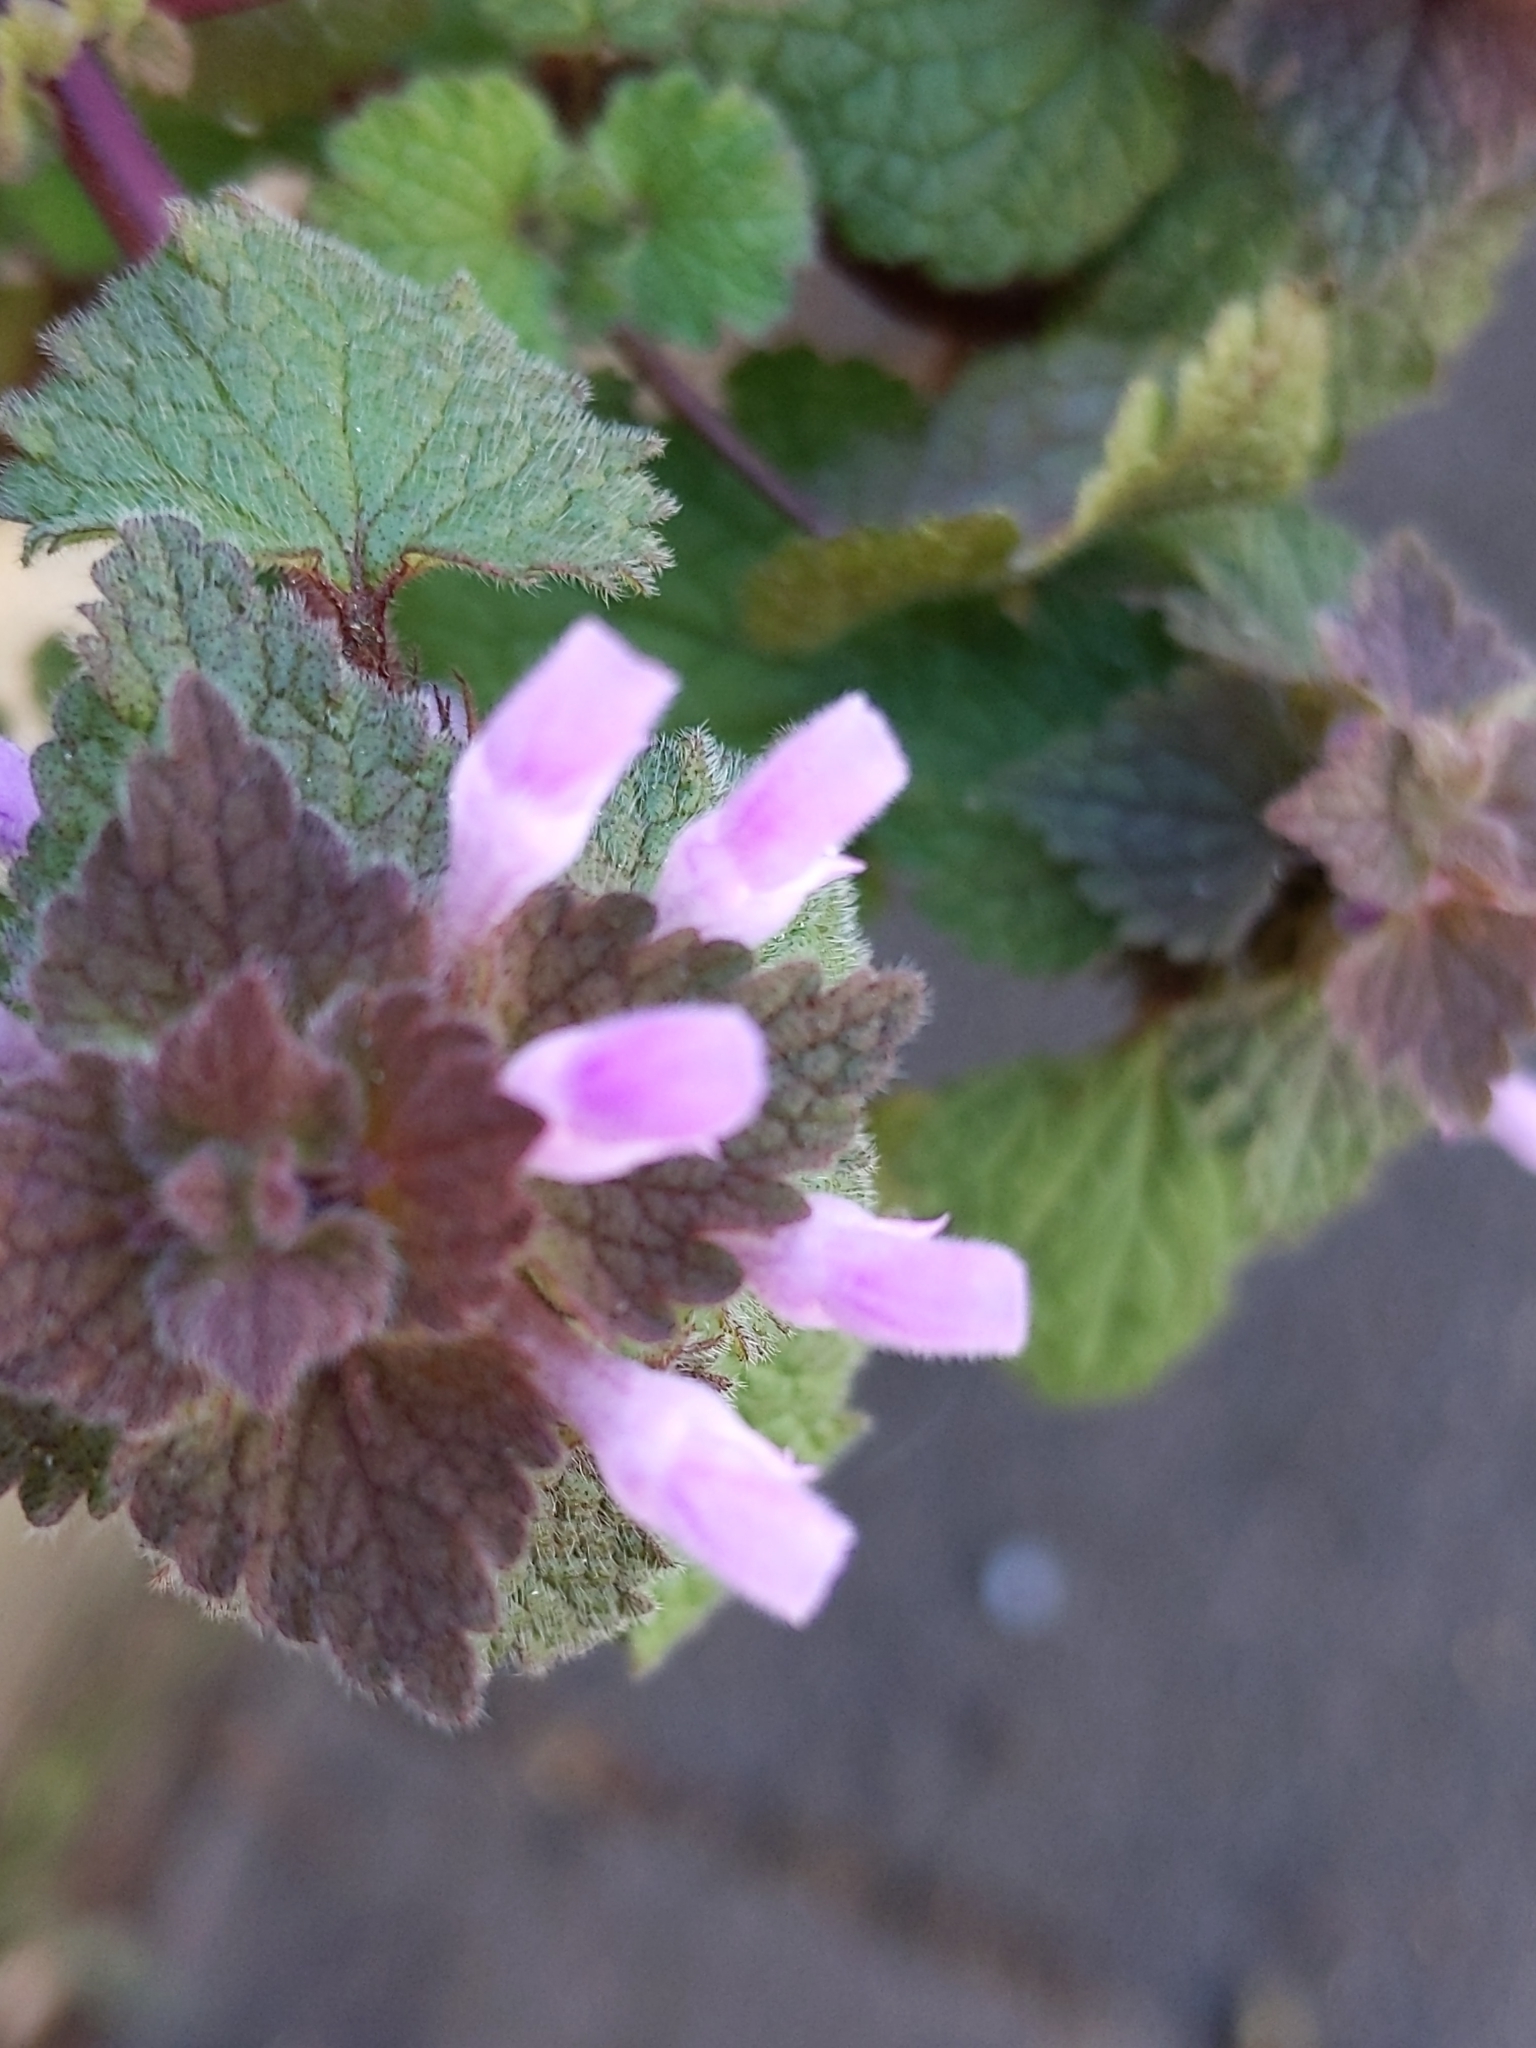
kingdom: Plantae
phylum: Tracheophyta
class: Magnoliopsida
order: Lamiales
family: Lamiaceae
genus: Lamium
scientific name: Lamium purpureum
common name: Red dead-nettle
